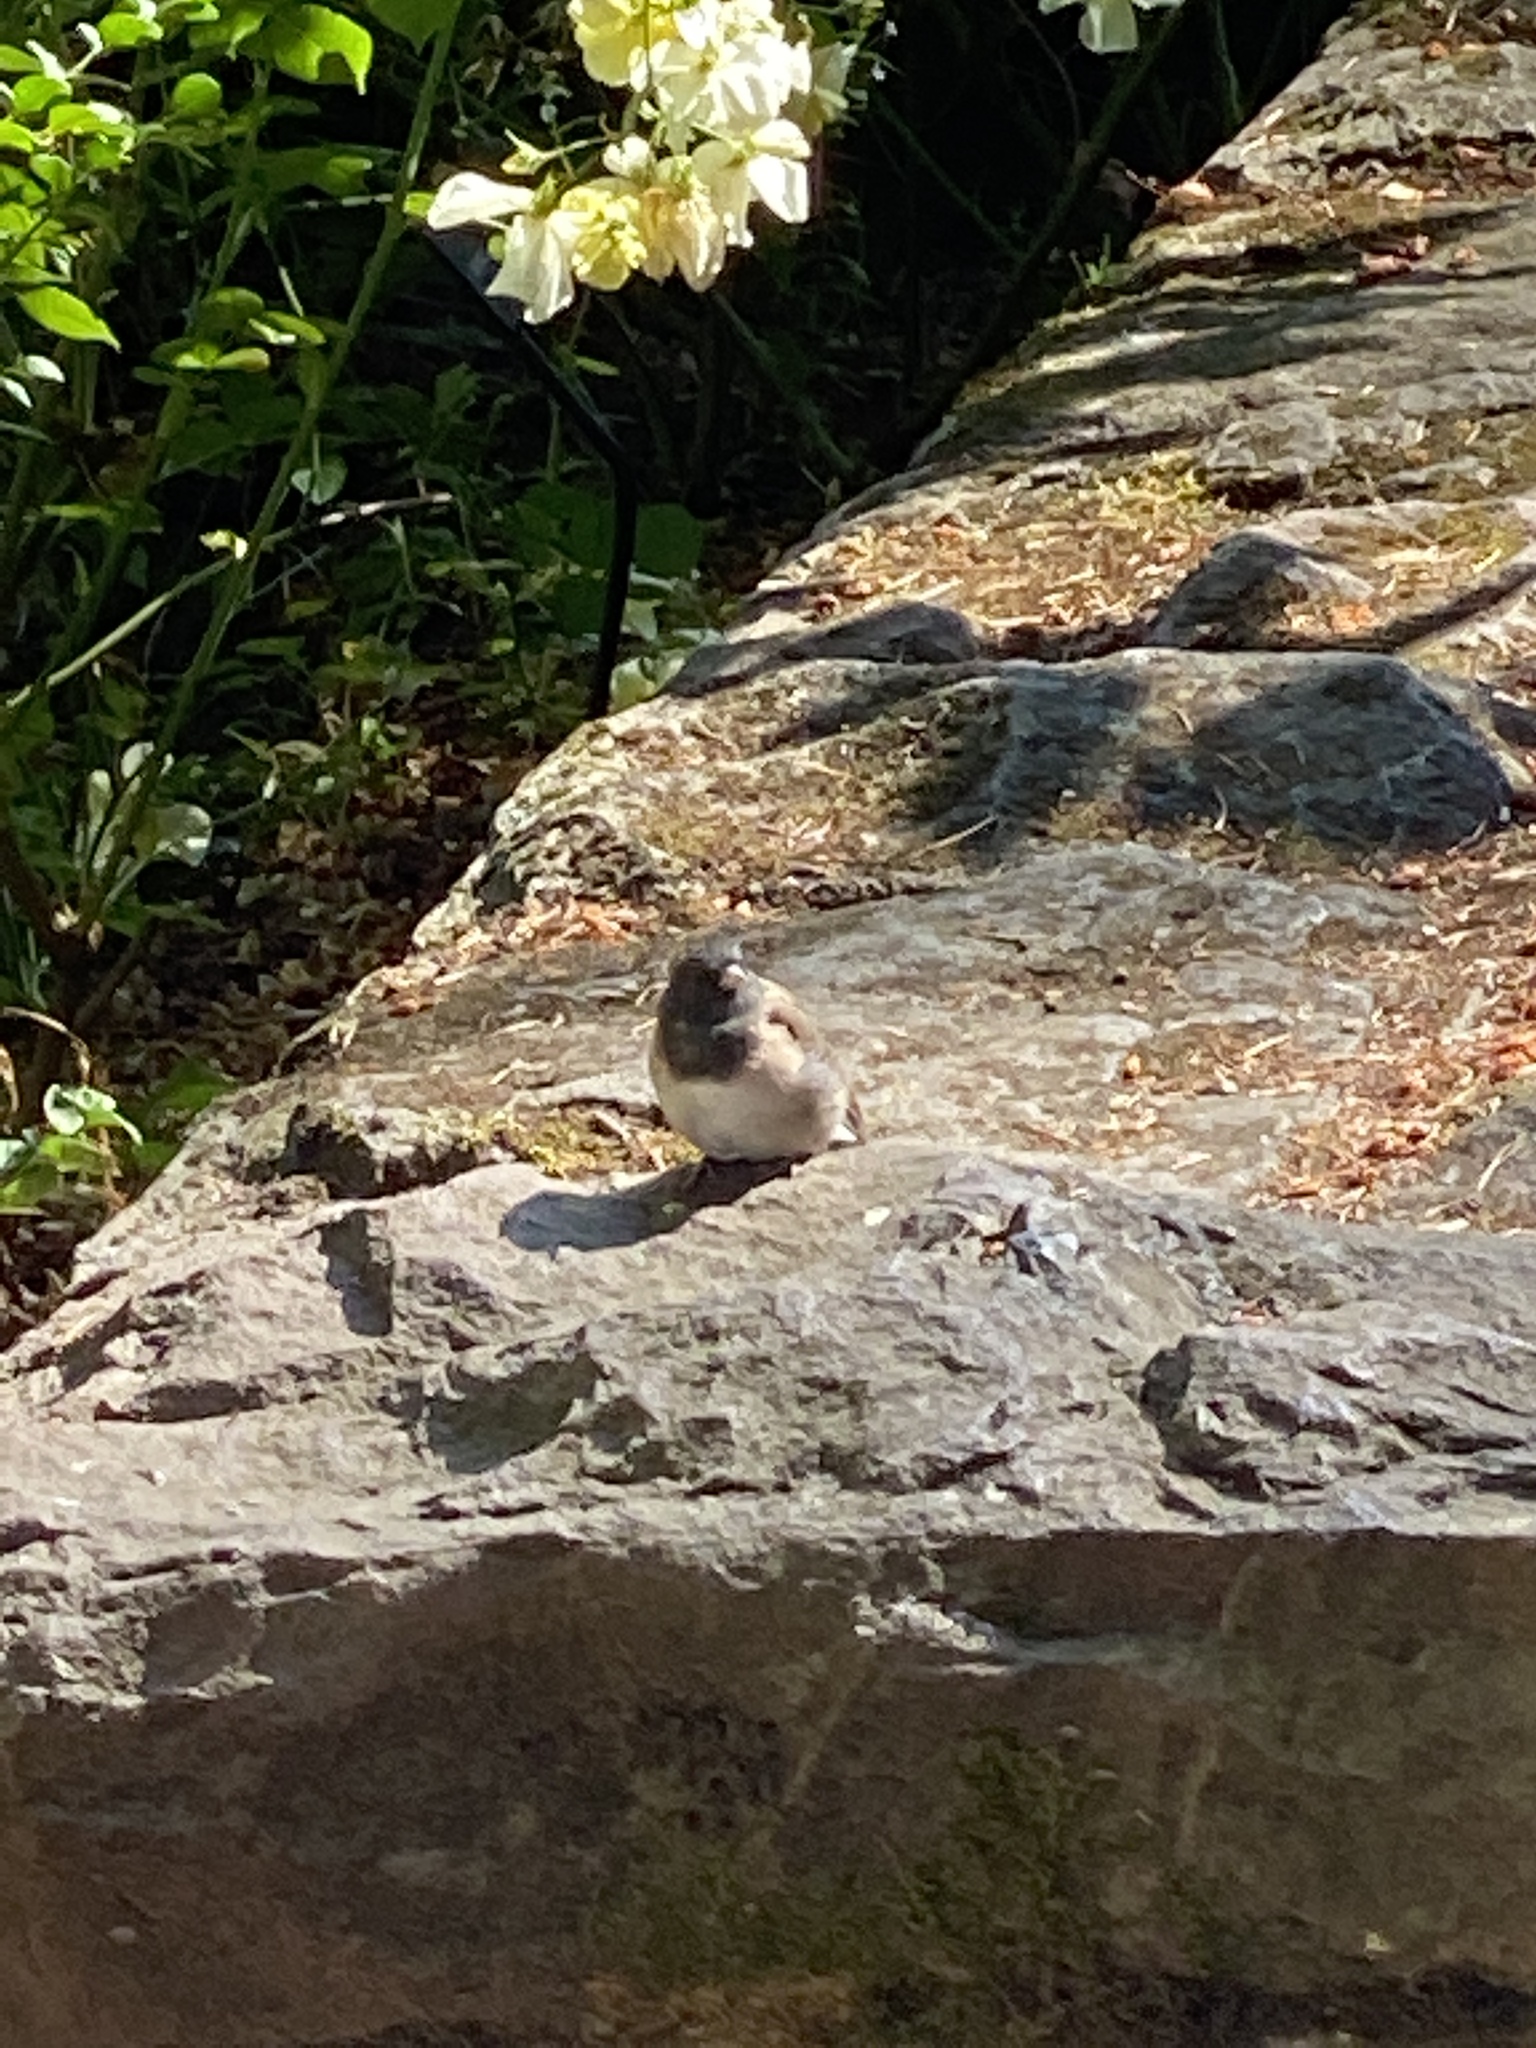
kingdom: Animalia
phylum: Chordata
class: Aves
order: Passeriformes
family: Passerellidae
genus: Junco
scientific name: Junco hyemalis
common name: Dark-eyed junco
